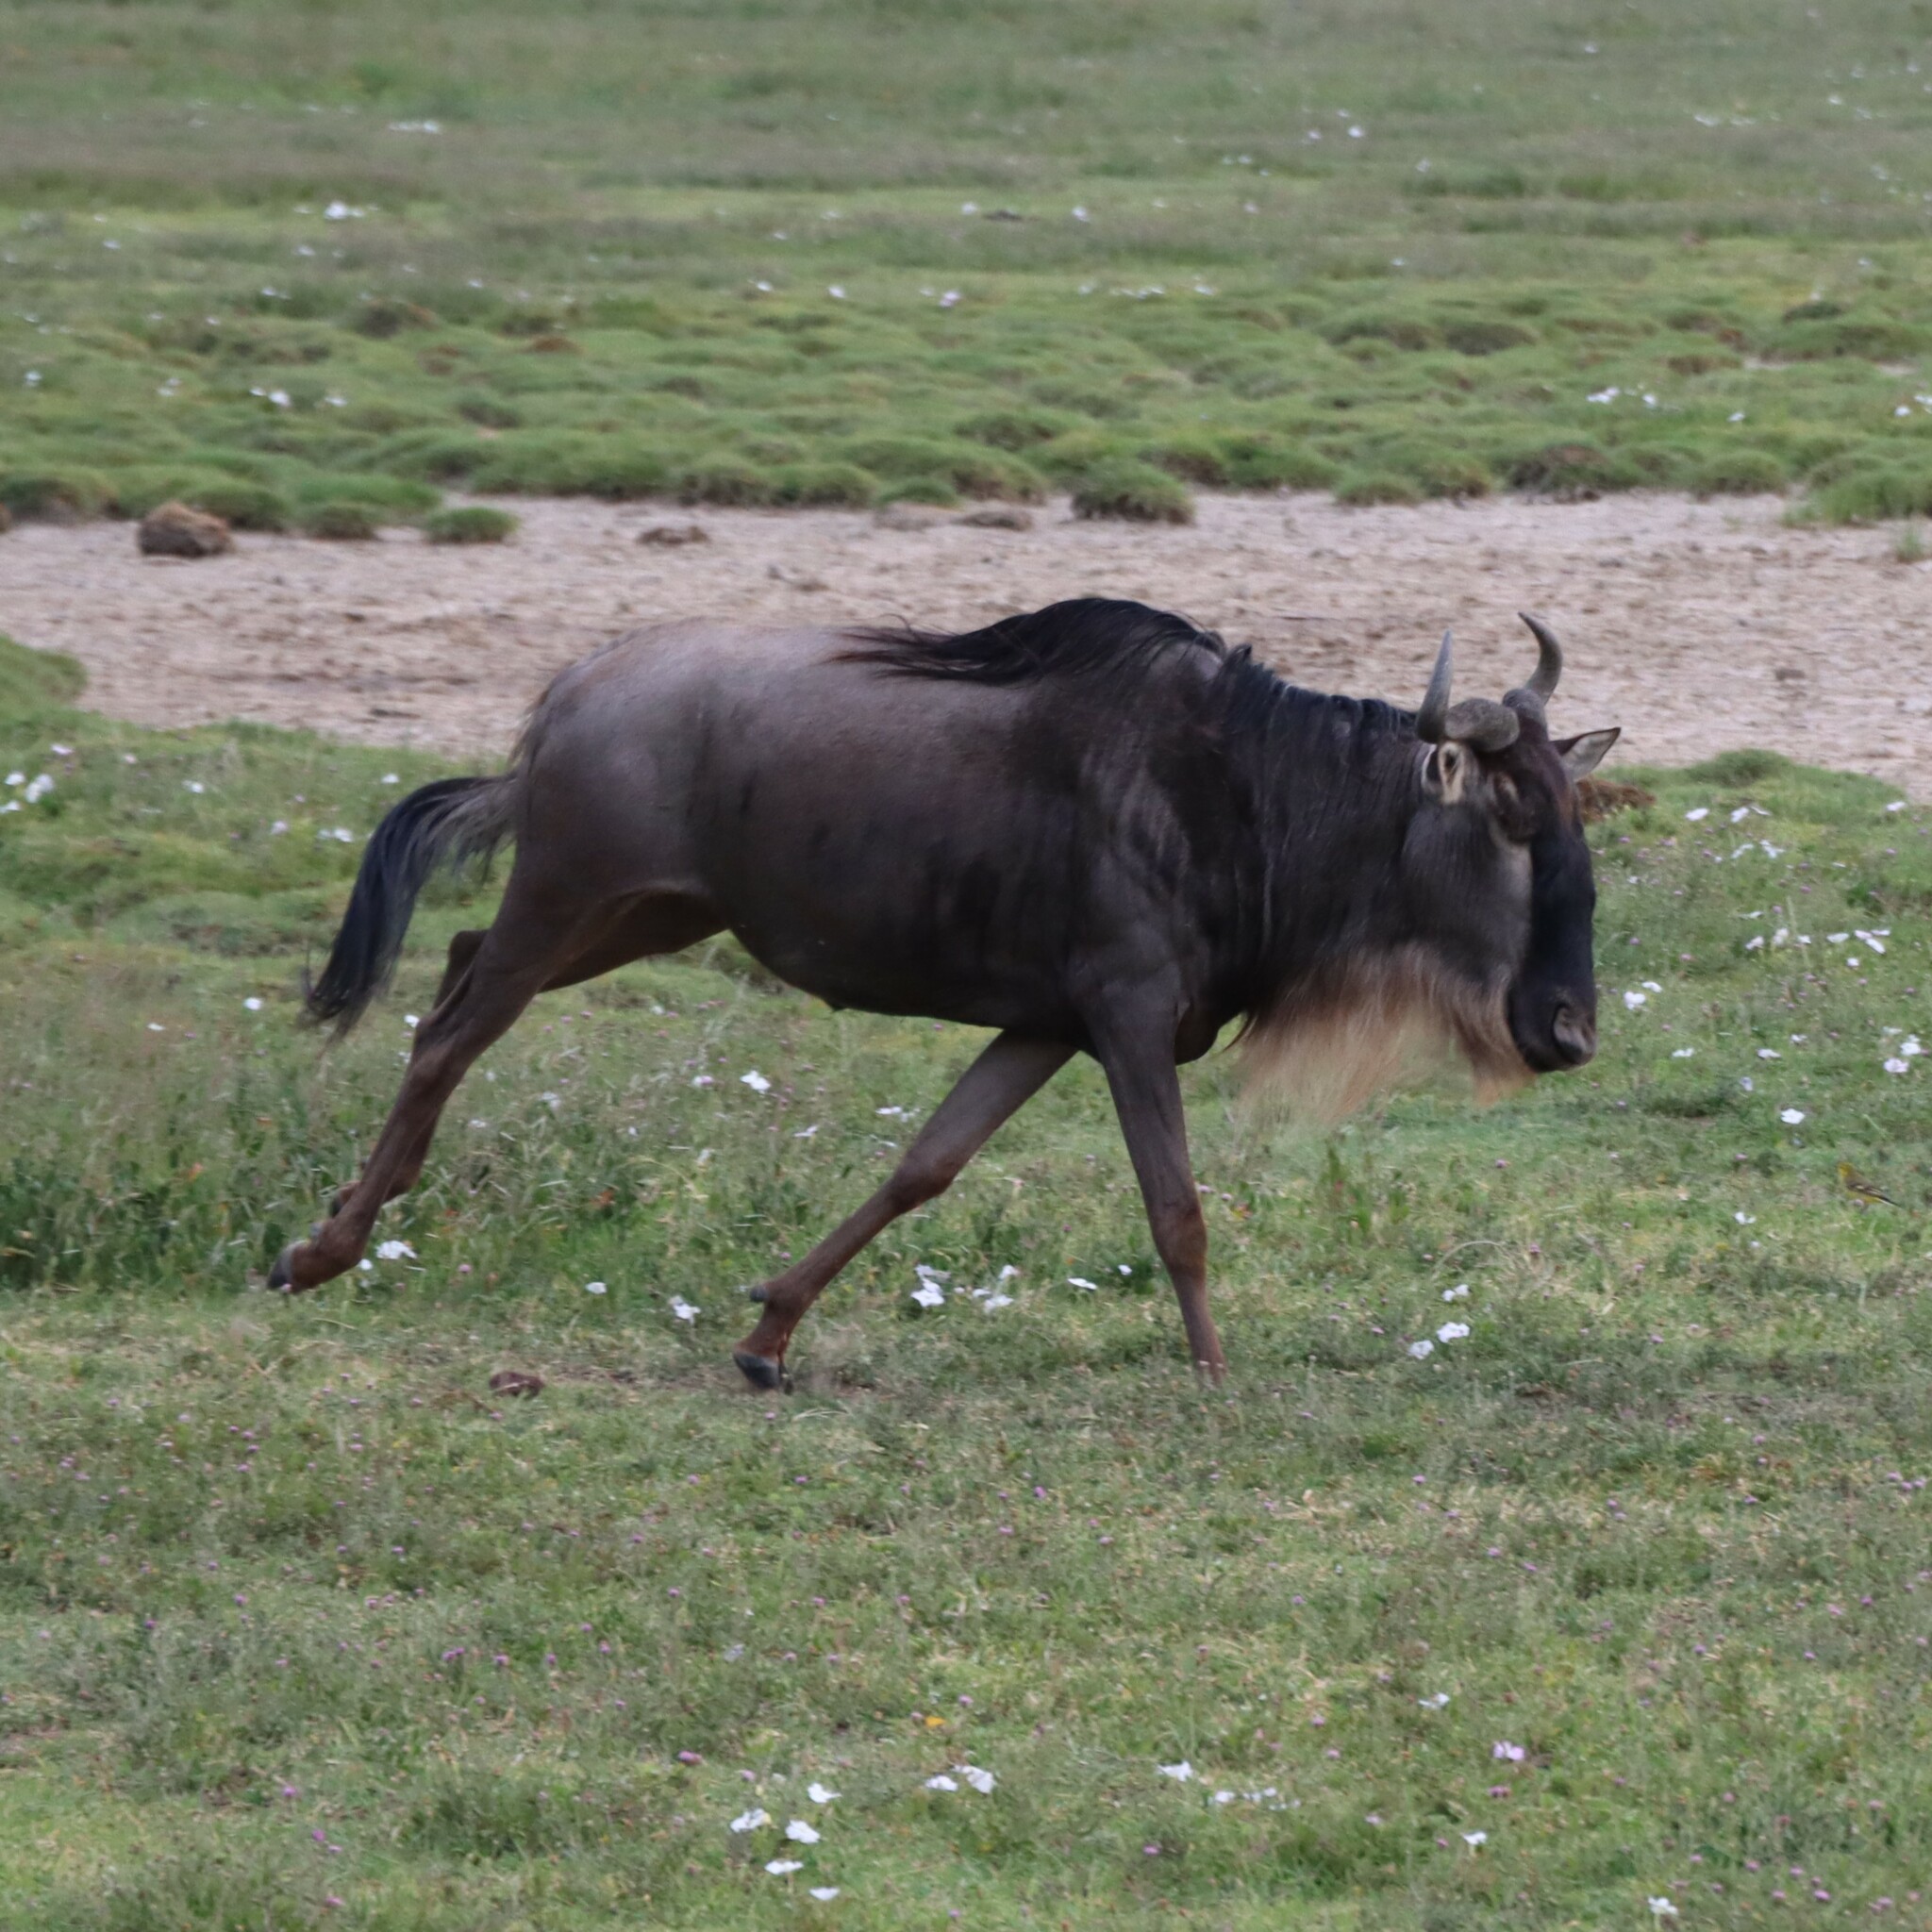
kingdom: Animalia
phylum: Chordata
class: Mammalia
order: Artiodactyla
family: Bovidae
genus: Connochaetes
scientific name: Connochaetes taurinus
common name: Blue wildebeest
